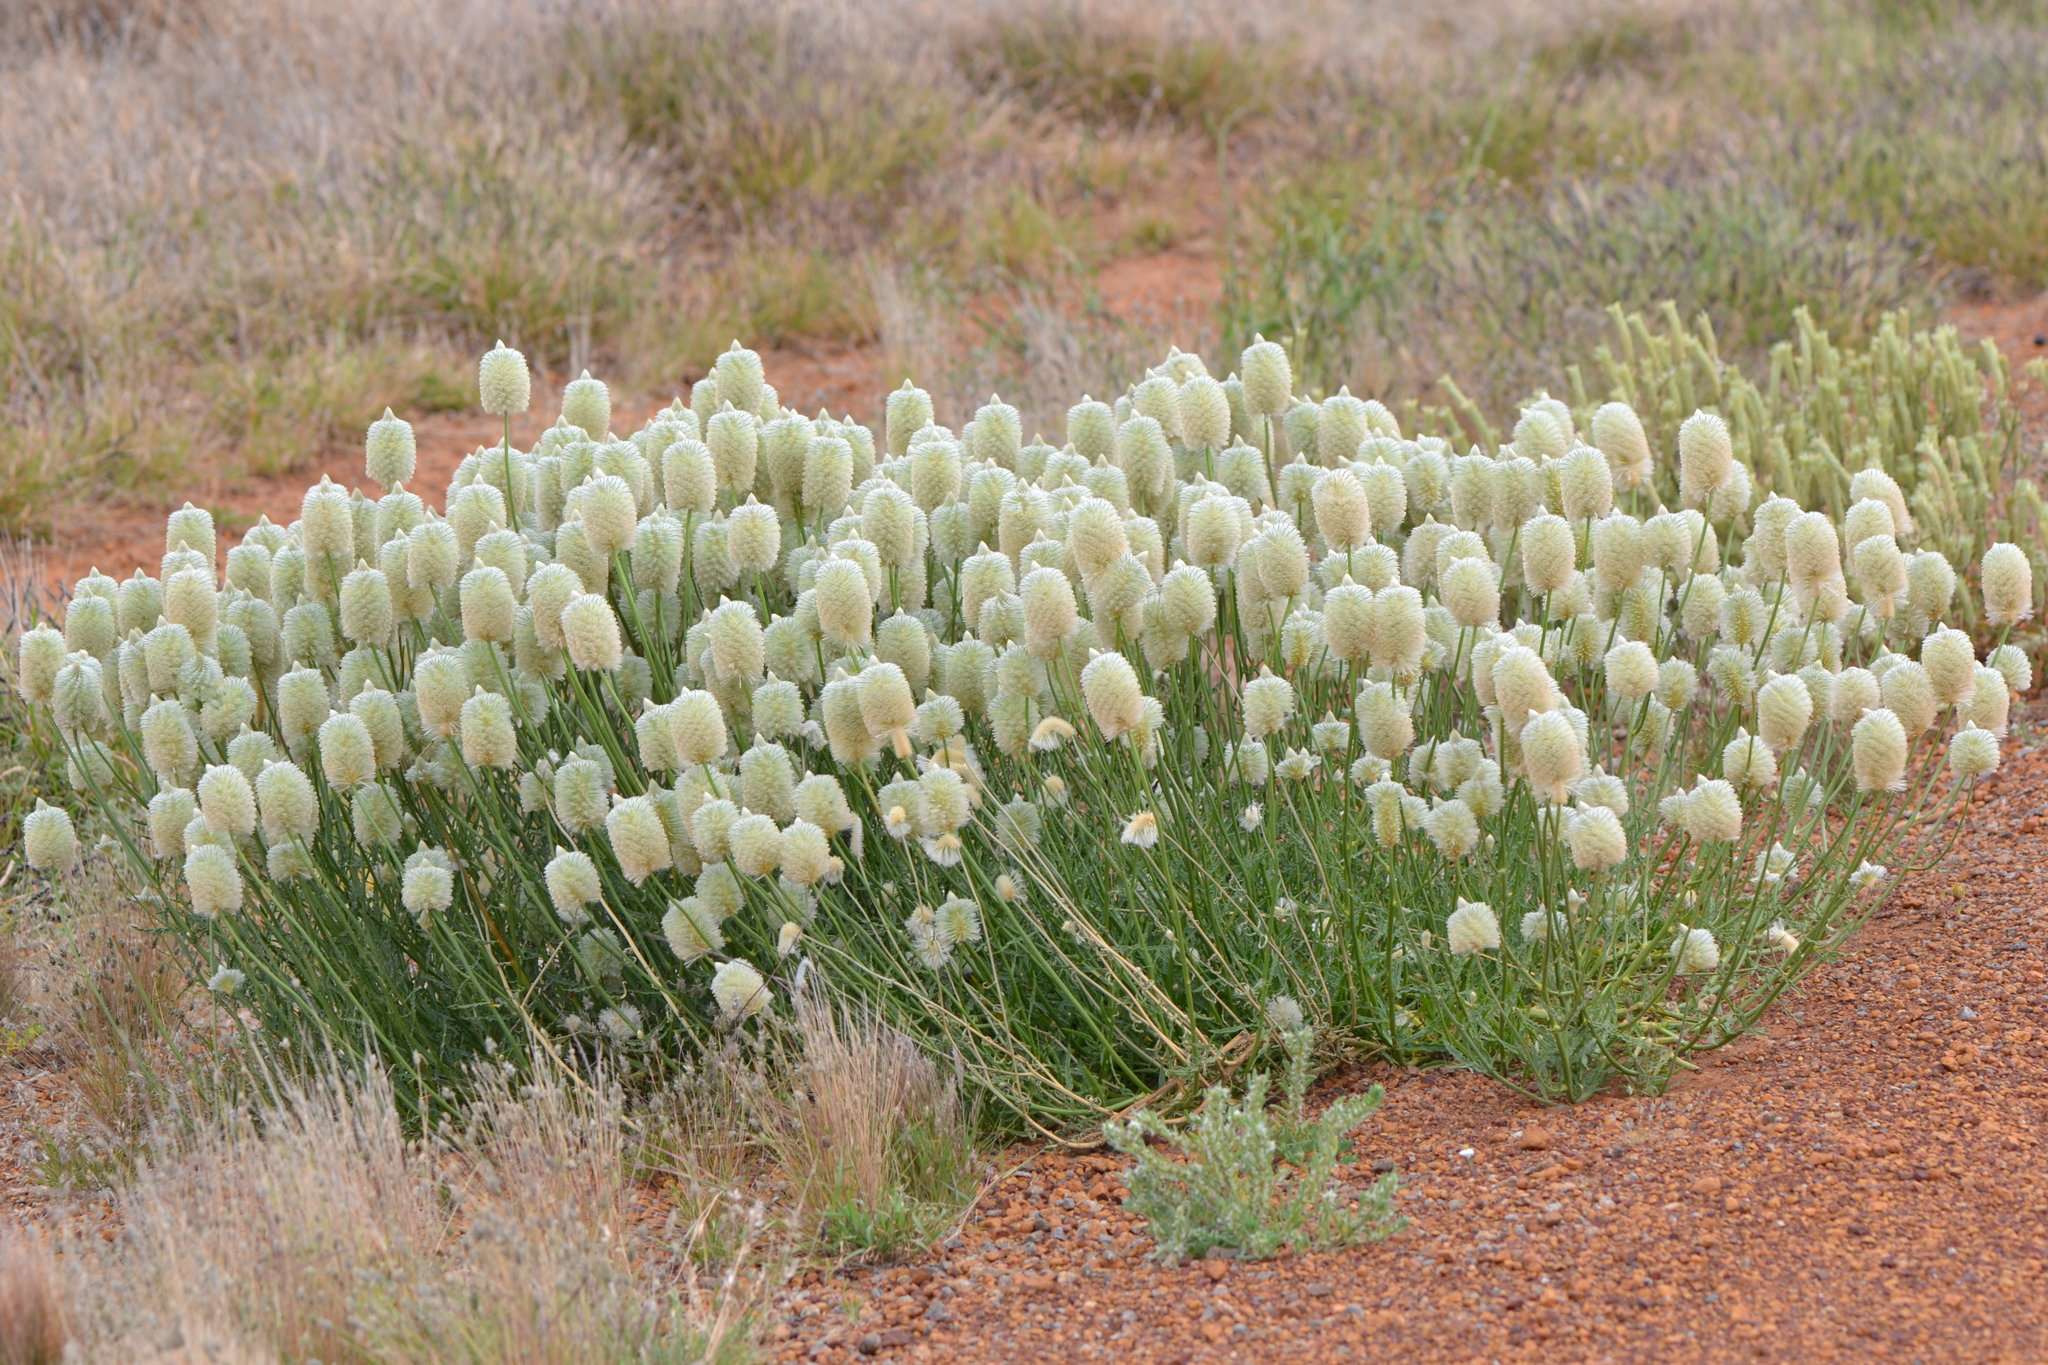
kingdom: Plantae
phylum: Tracheophyta
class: Magnoliopsida
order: Caryophyllales
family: Amaranthaceae
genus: Ptilotus
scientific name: Ptilotus xerophilus
